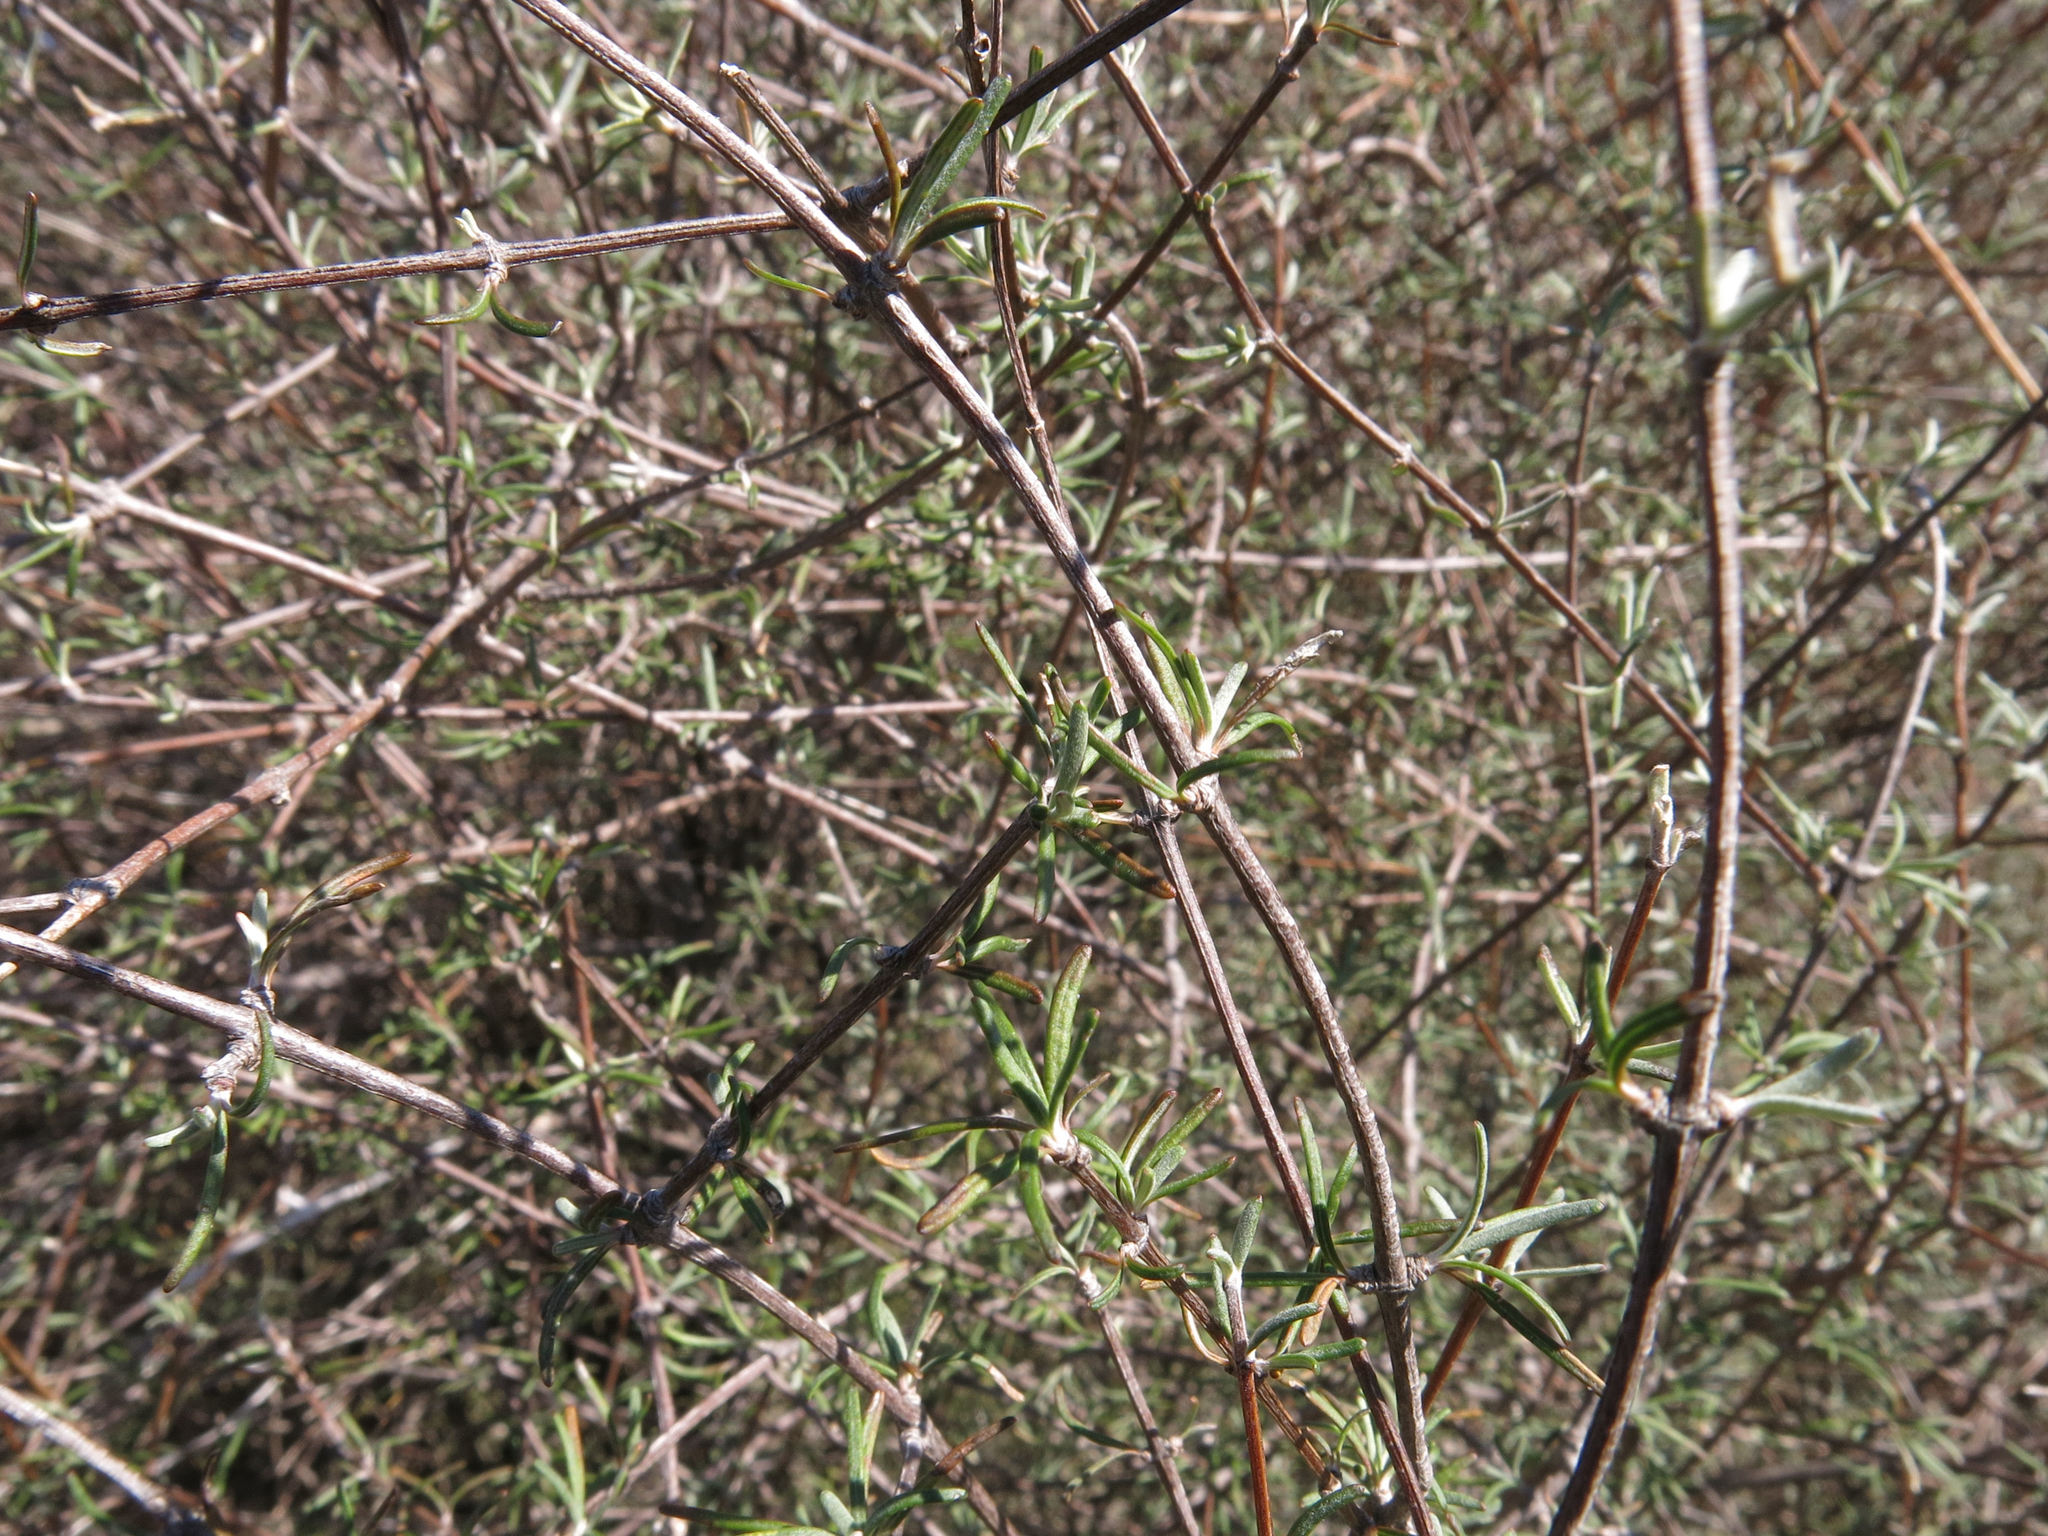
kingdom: Plantae
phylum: Tracheophyta
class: Magnoliopsida
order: Asterales
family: Asteraceae
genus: Olearia
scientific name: Olearia lineata
